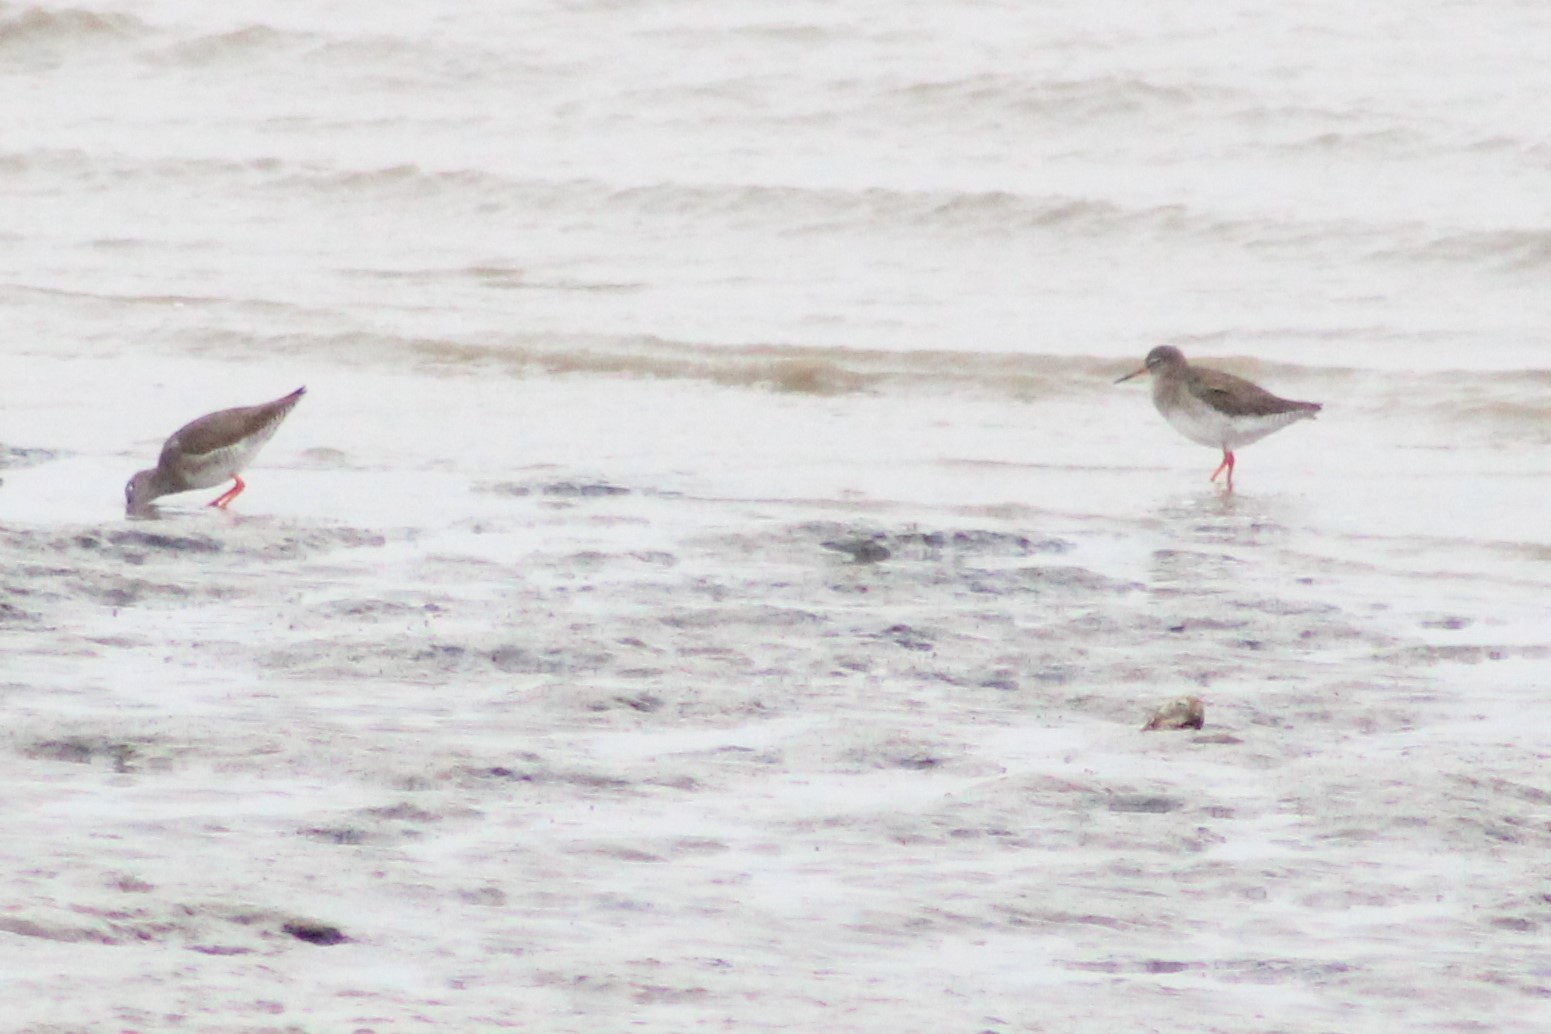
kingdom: Animalia
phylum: Chordata
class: Aves
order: Charadriiformes
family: Scolopacidae
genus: Tringa
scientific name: Tringa totanus
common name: Common redshank
